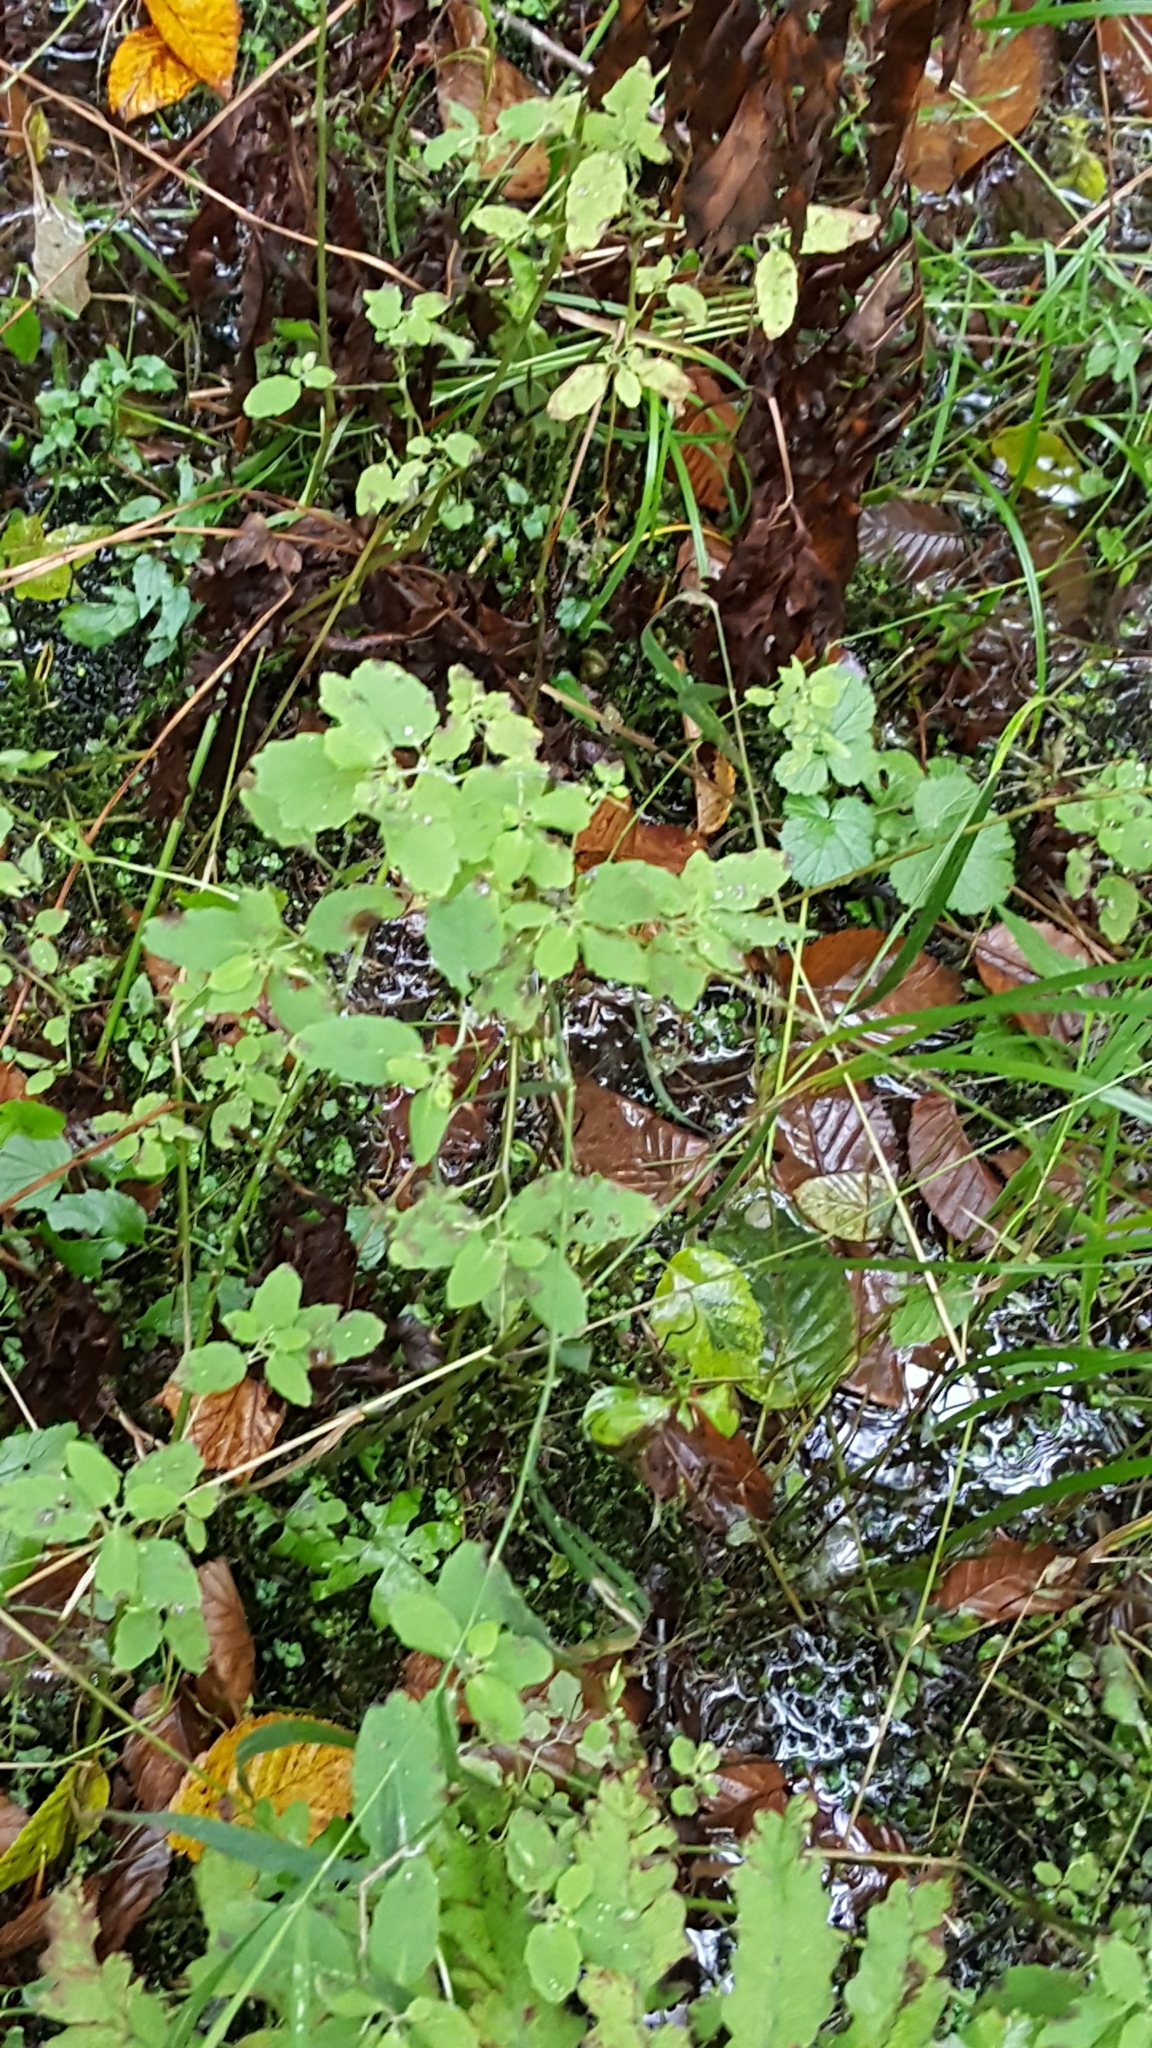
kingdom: Plantae
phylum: Tracheophyta
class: Magnoliopsida
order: Ericales
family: Balsaminaceae
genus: Impatiens
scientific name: Impatiens capensis
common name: Orange balsam
